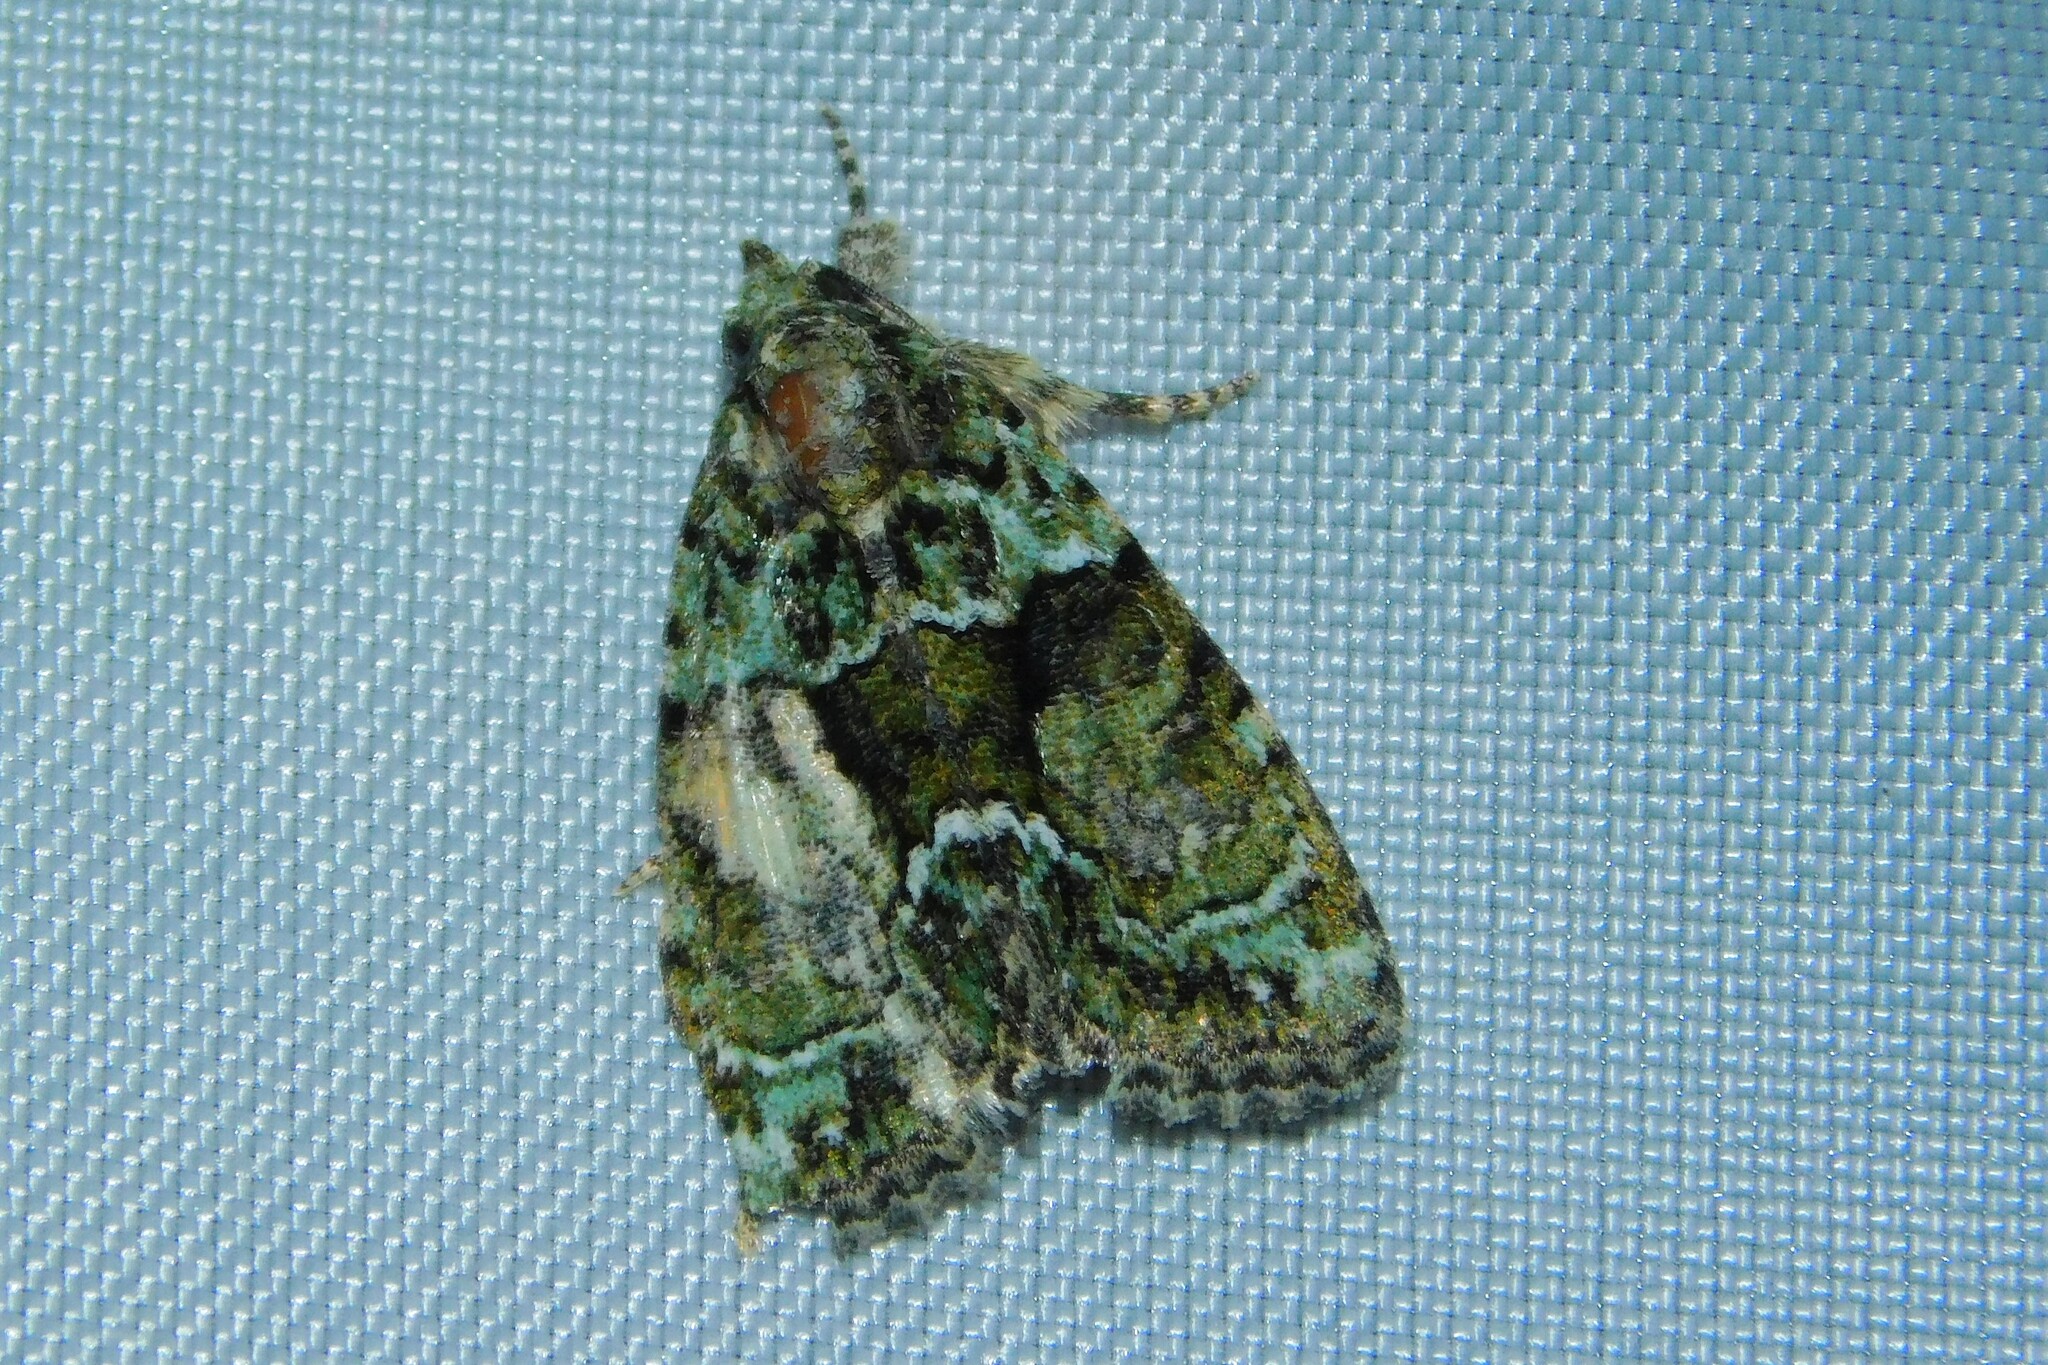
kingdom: Animalia
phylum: Arthropoda
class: Insecta
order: Lepidoptera
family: Noctuidae
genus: Cryphia
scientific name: Cryphia algae
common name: Tree-lichen beauty
